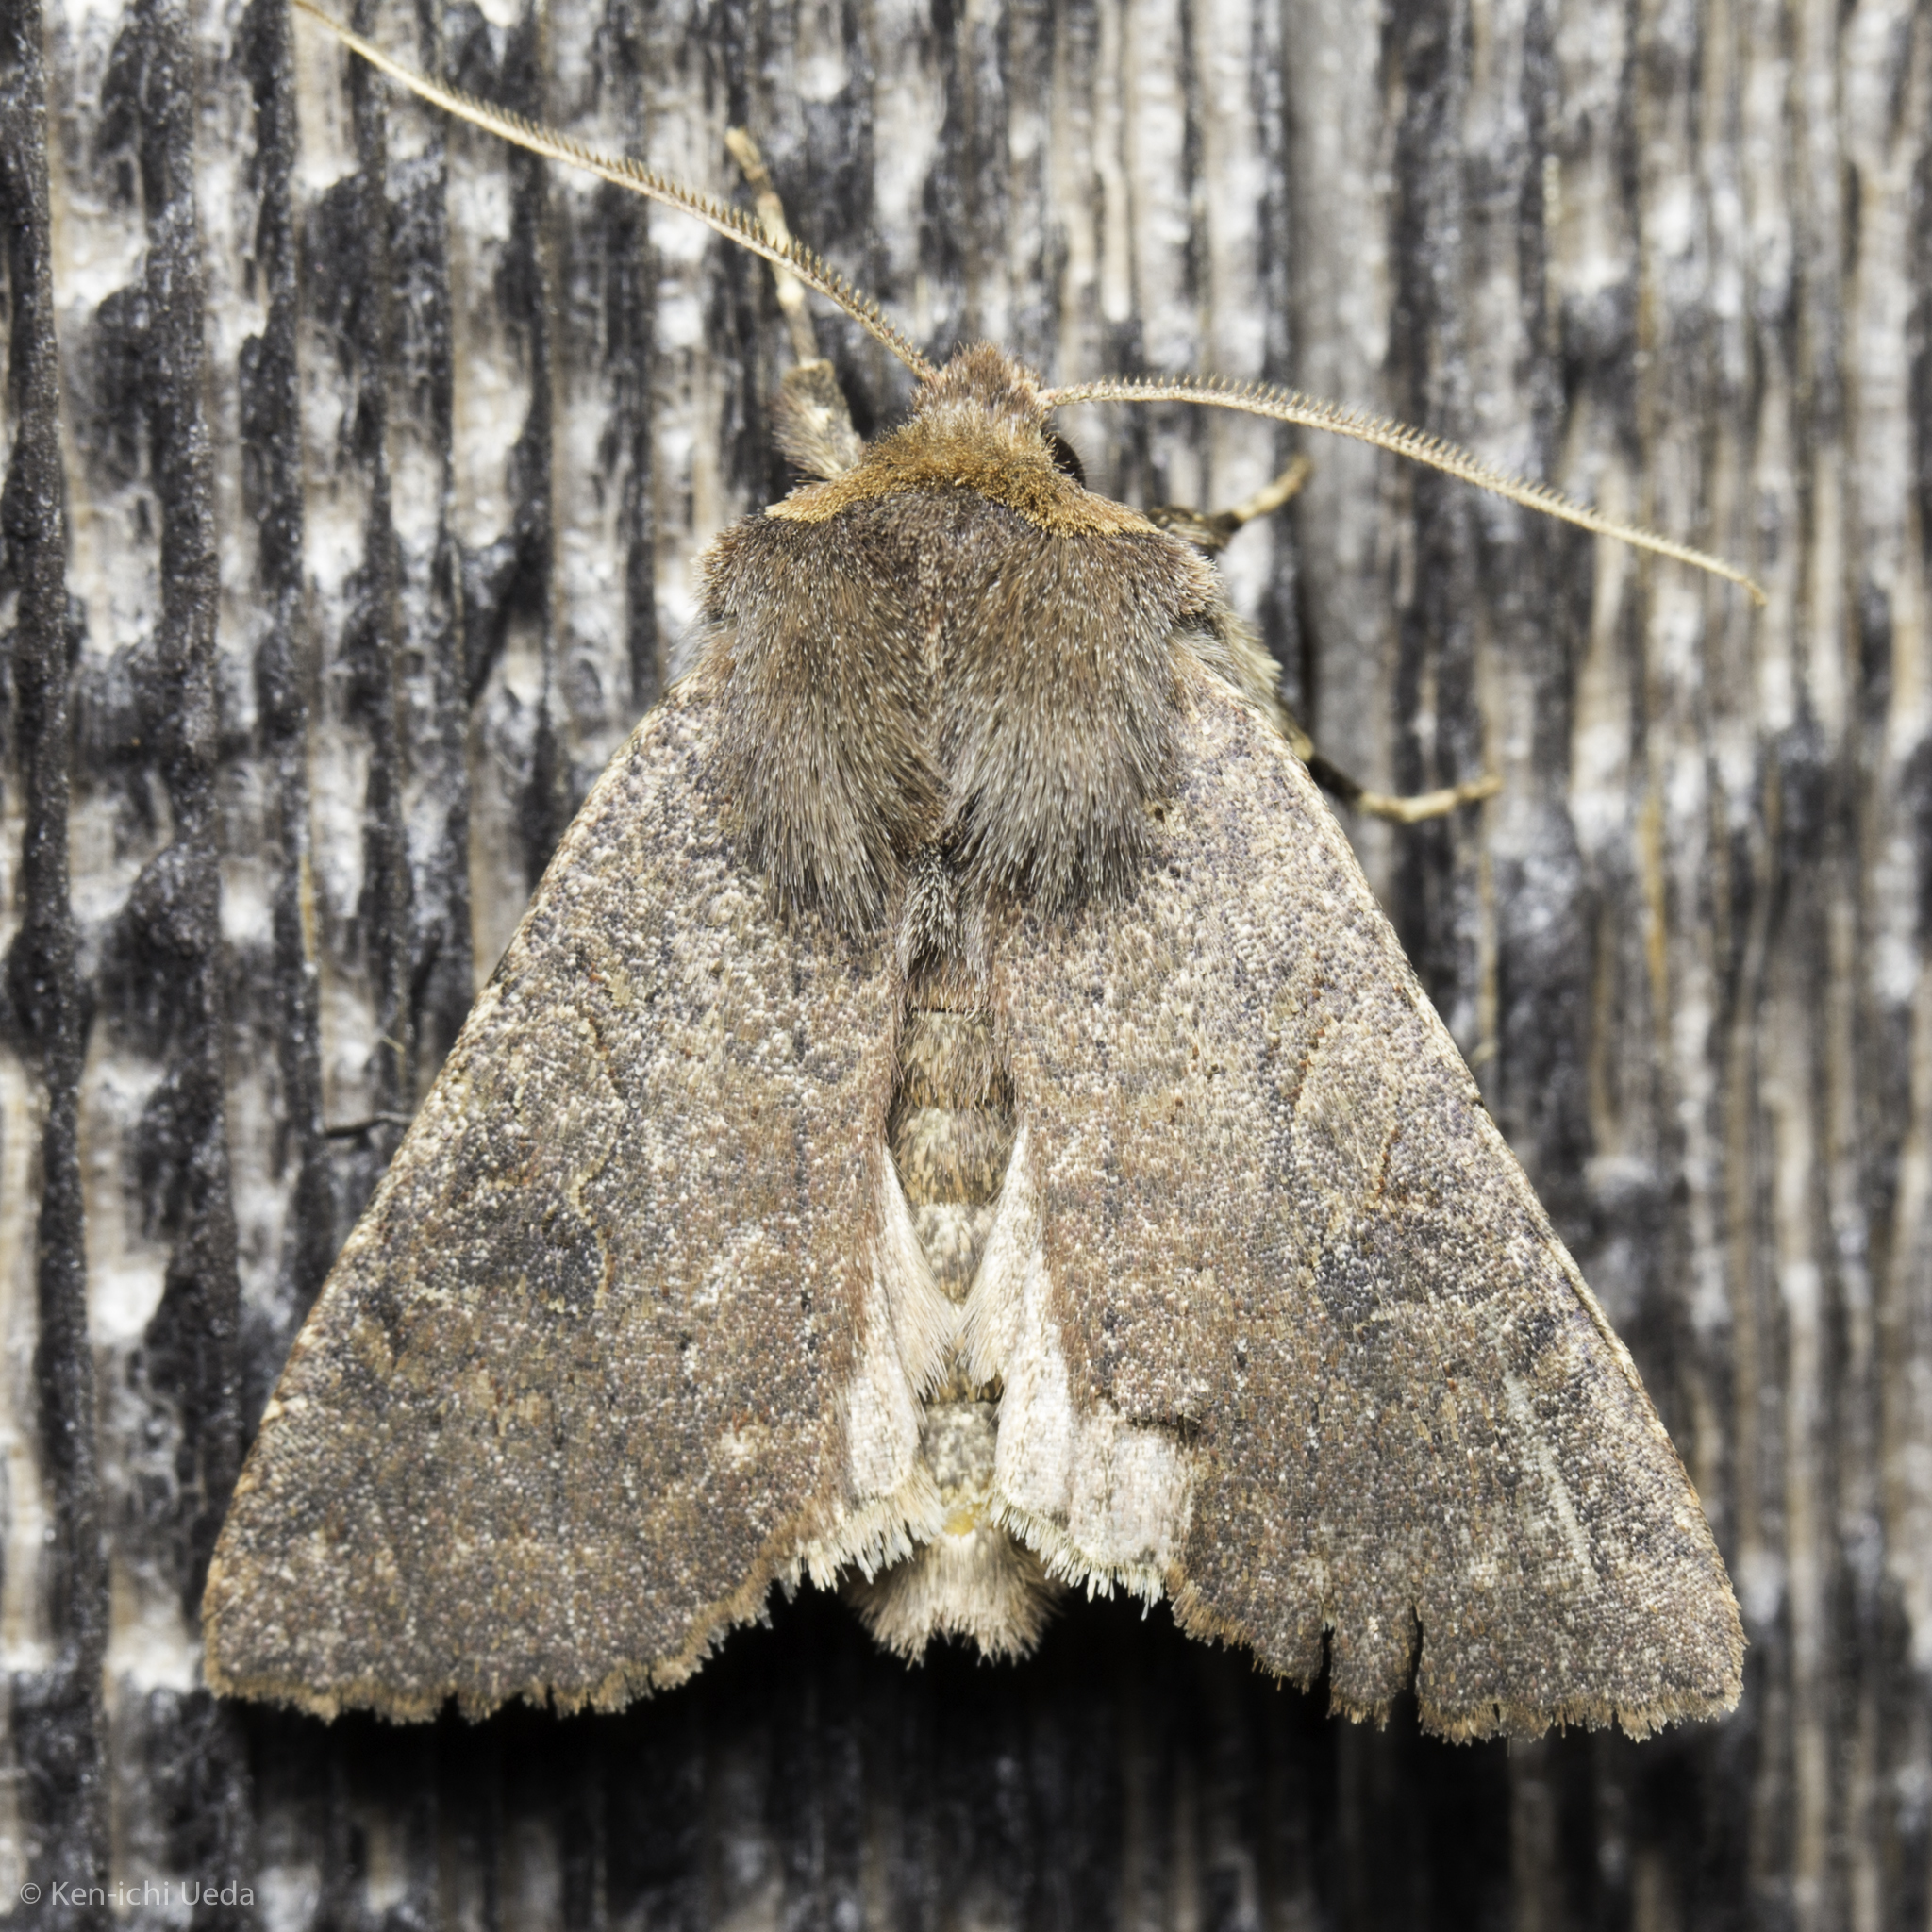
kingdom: Animalia
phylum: Arthropoda
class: Insecta
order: Lepidoptera
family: Noctuidae
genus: Orthosia
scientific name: Orthosia praeses
